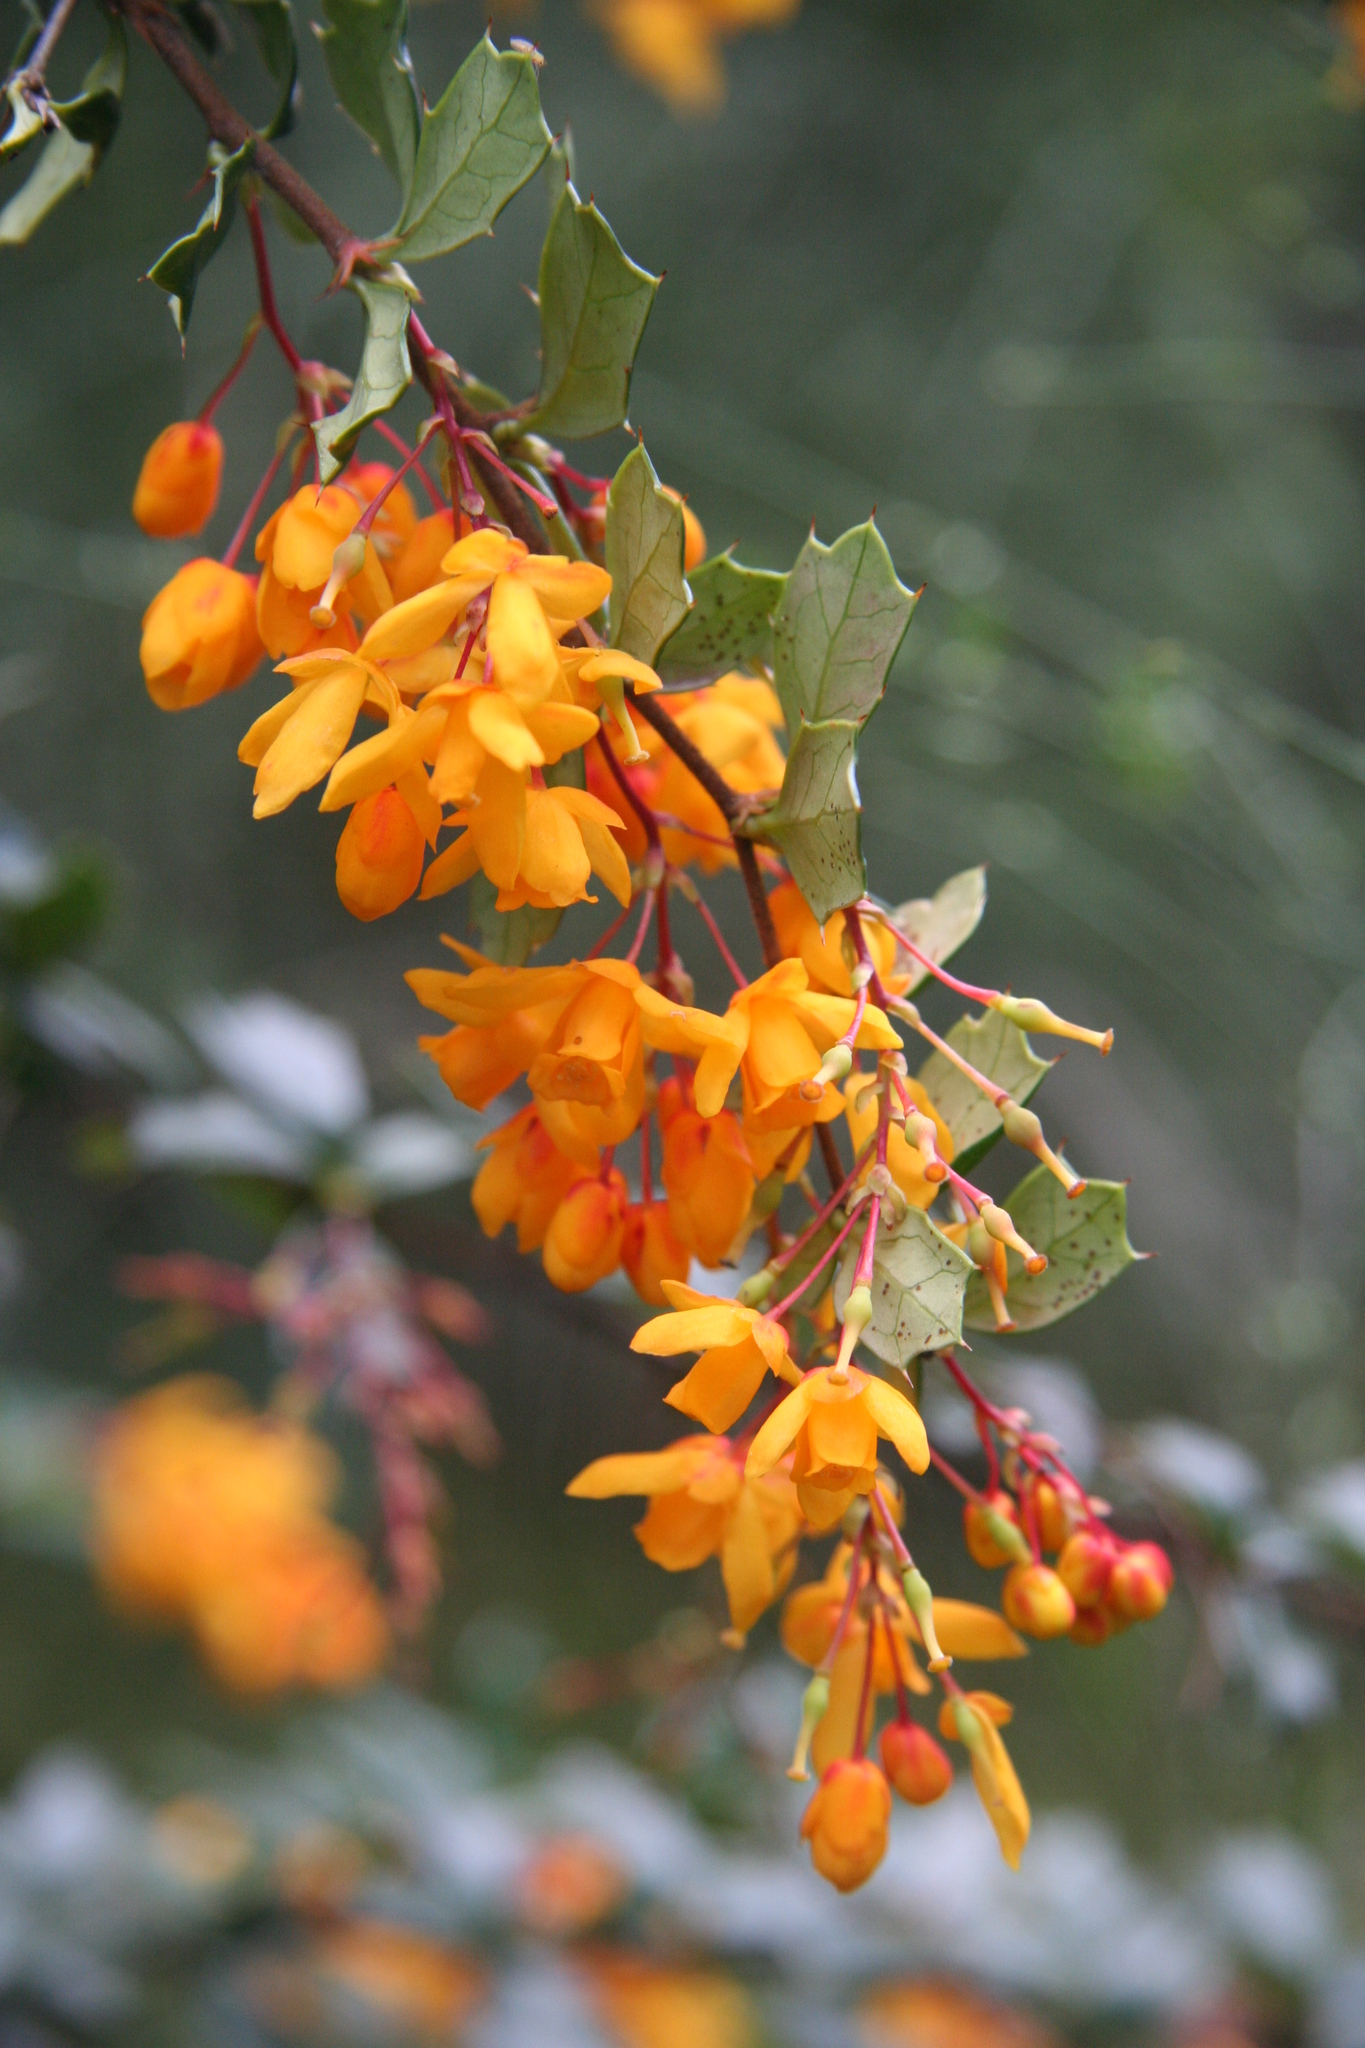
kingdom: Plantae
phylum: Tracheophyta
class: Magnoliopsida
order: Ranunculales
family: Berberidaceae
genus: Berberis
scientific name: Berberis darwinii
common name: Darwin's barberry
